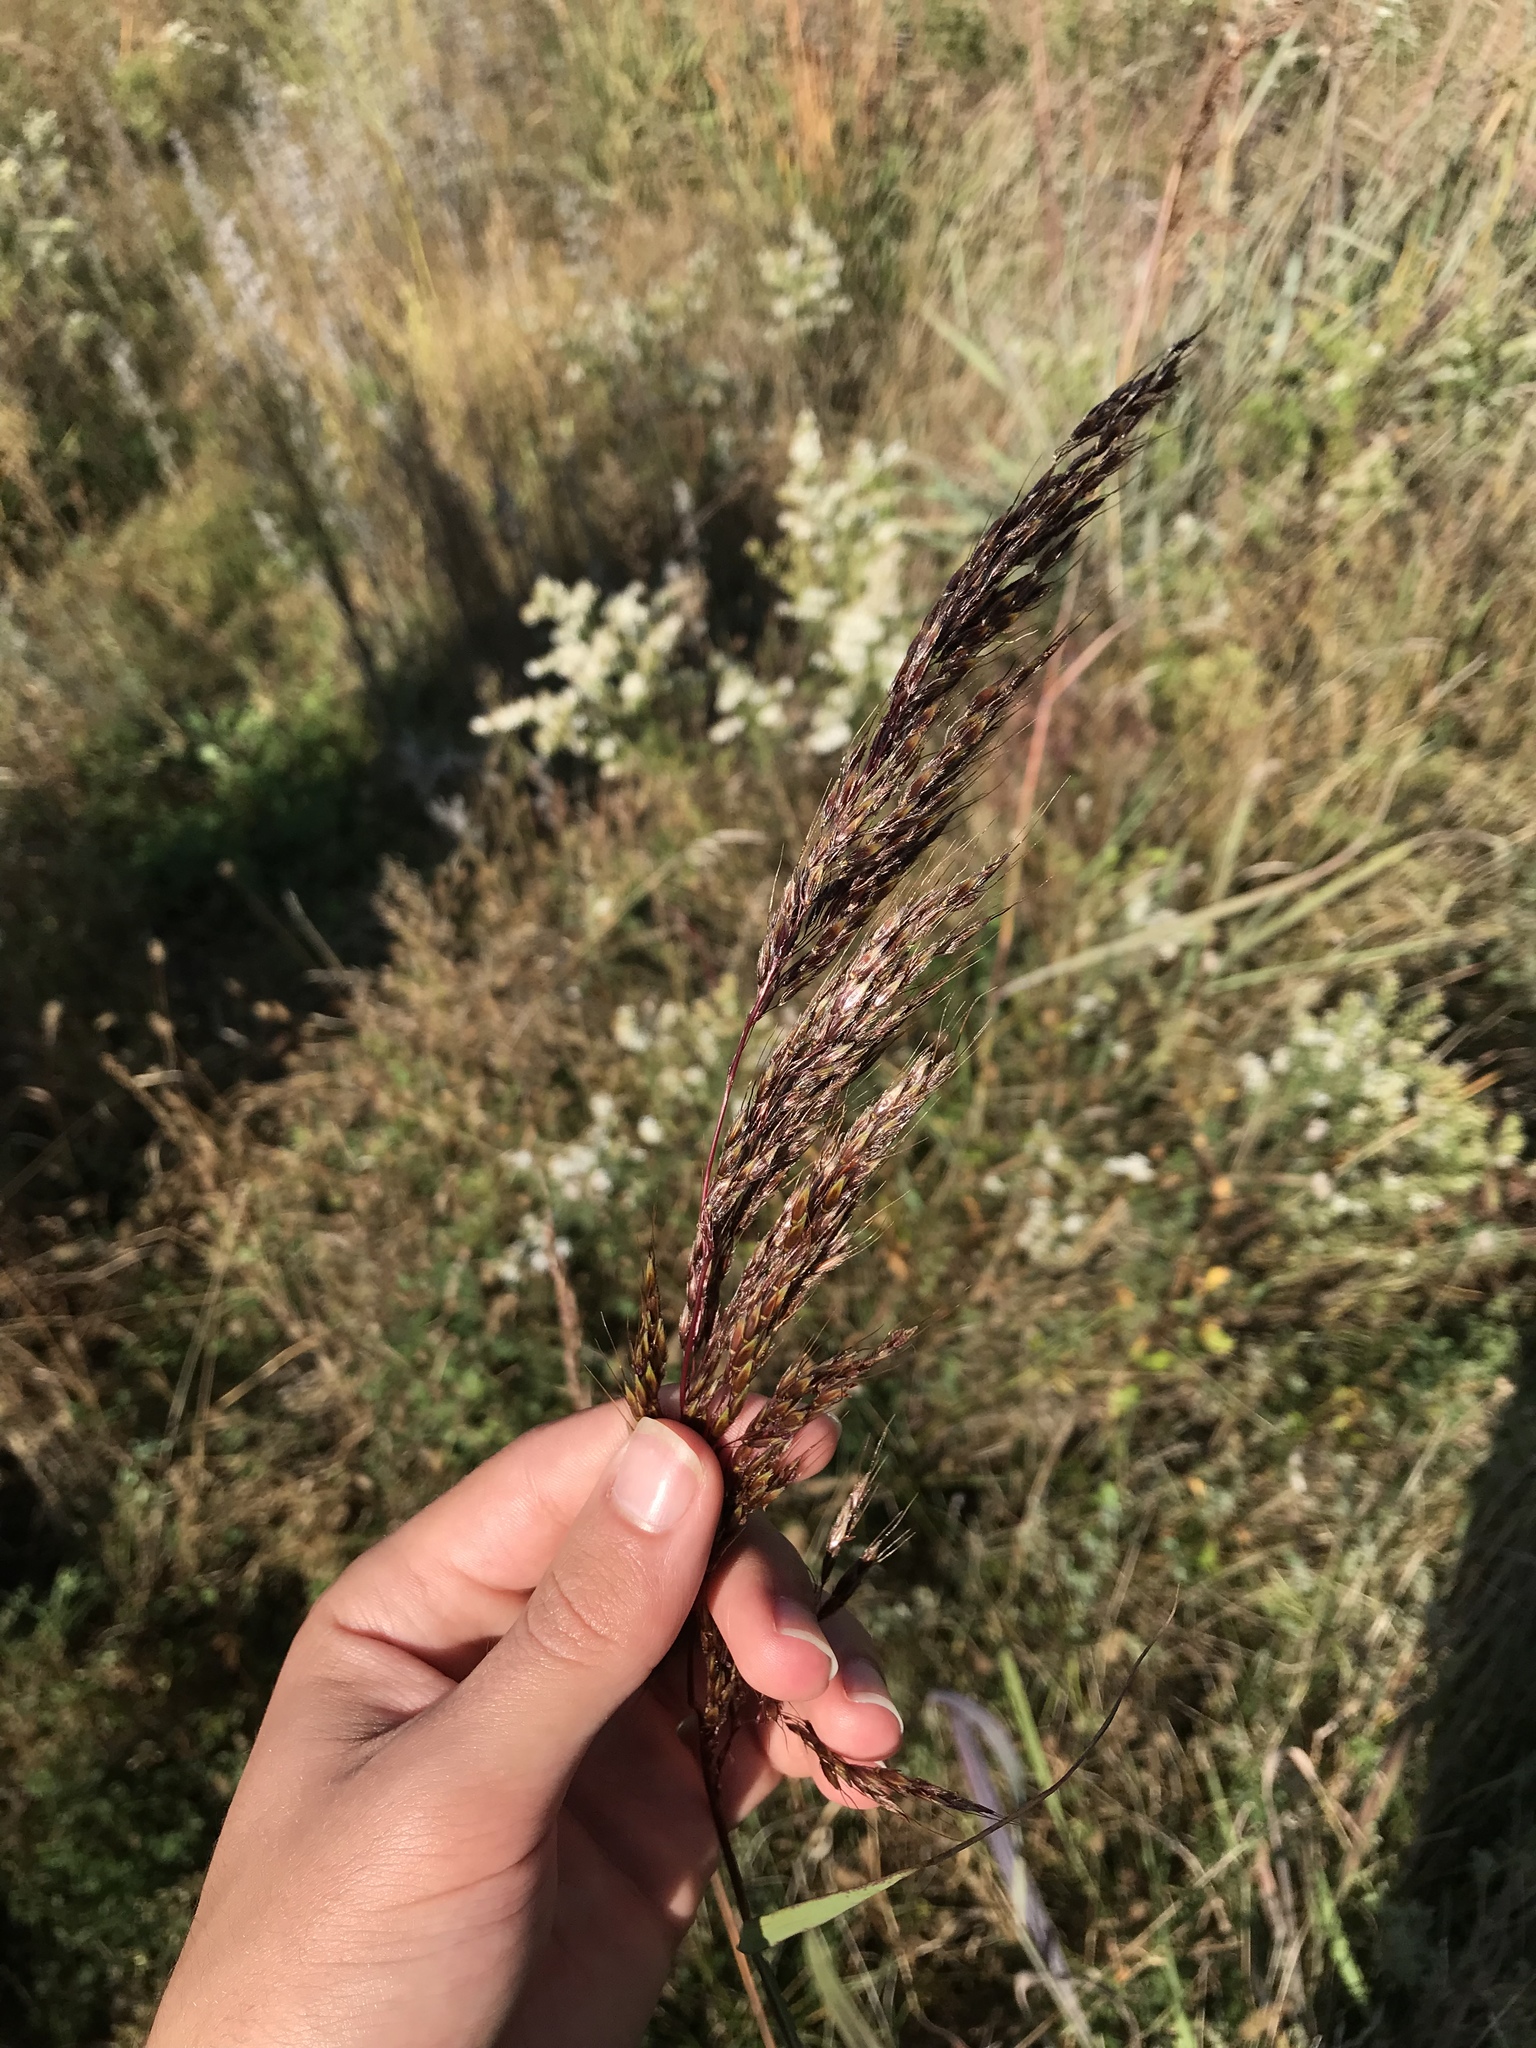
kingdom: Plantae
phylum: Tracheophyta
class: Liliopsida
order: Poales
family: Poaceae
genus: Sorghastrum
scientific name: Sorghastrum nutans
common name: Indian grass
